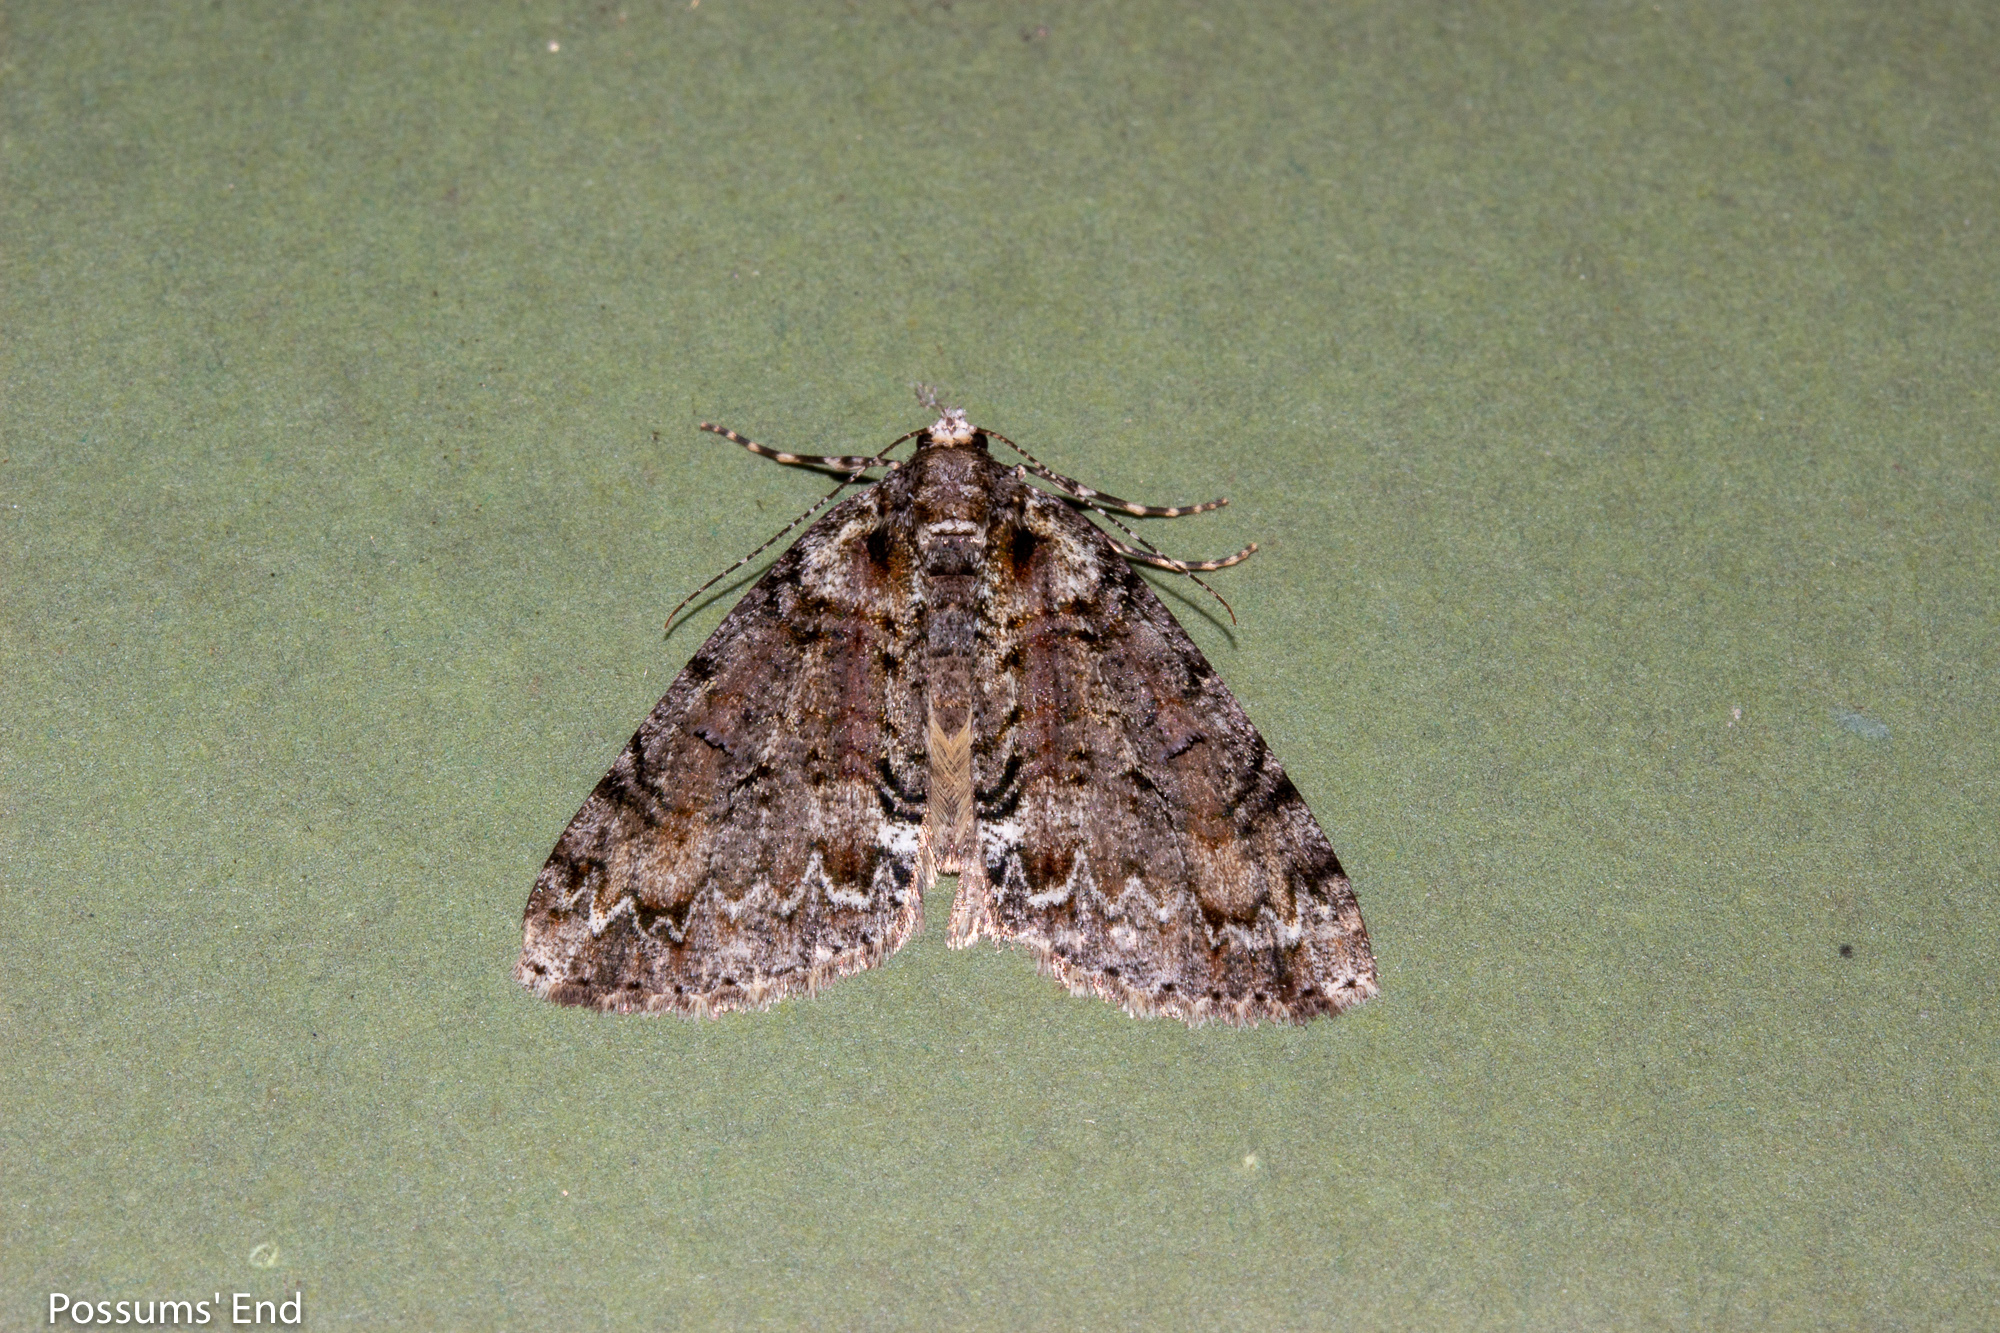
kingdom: Animalia
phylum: Arthropoda
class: Insecta
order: Lepidoptera
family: Geometridae
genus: Pseudocoremia
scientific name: Pseudocoremia suavis
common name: Common forest looper
